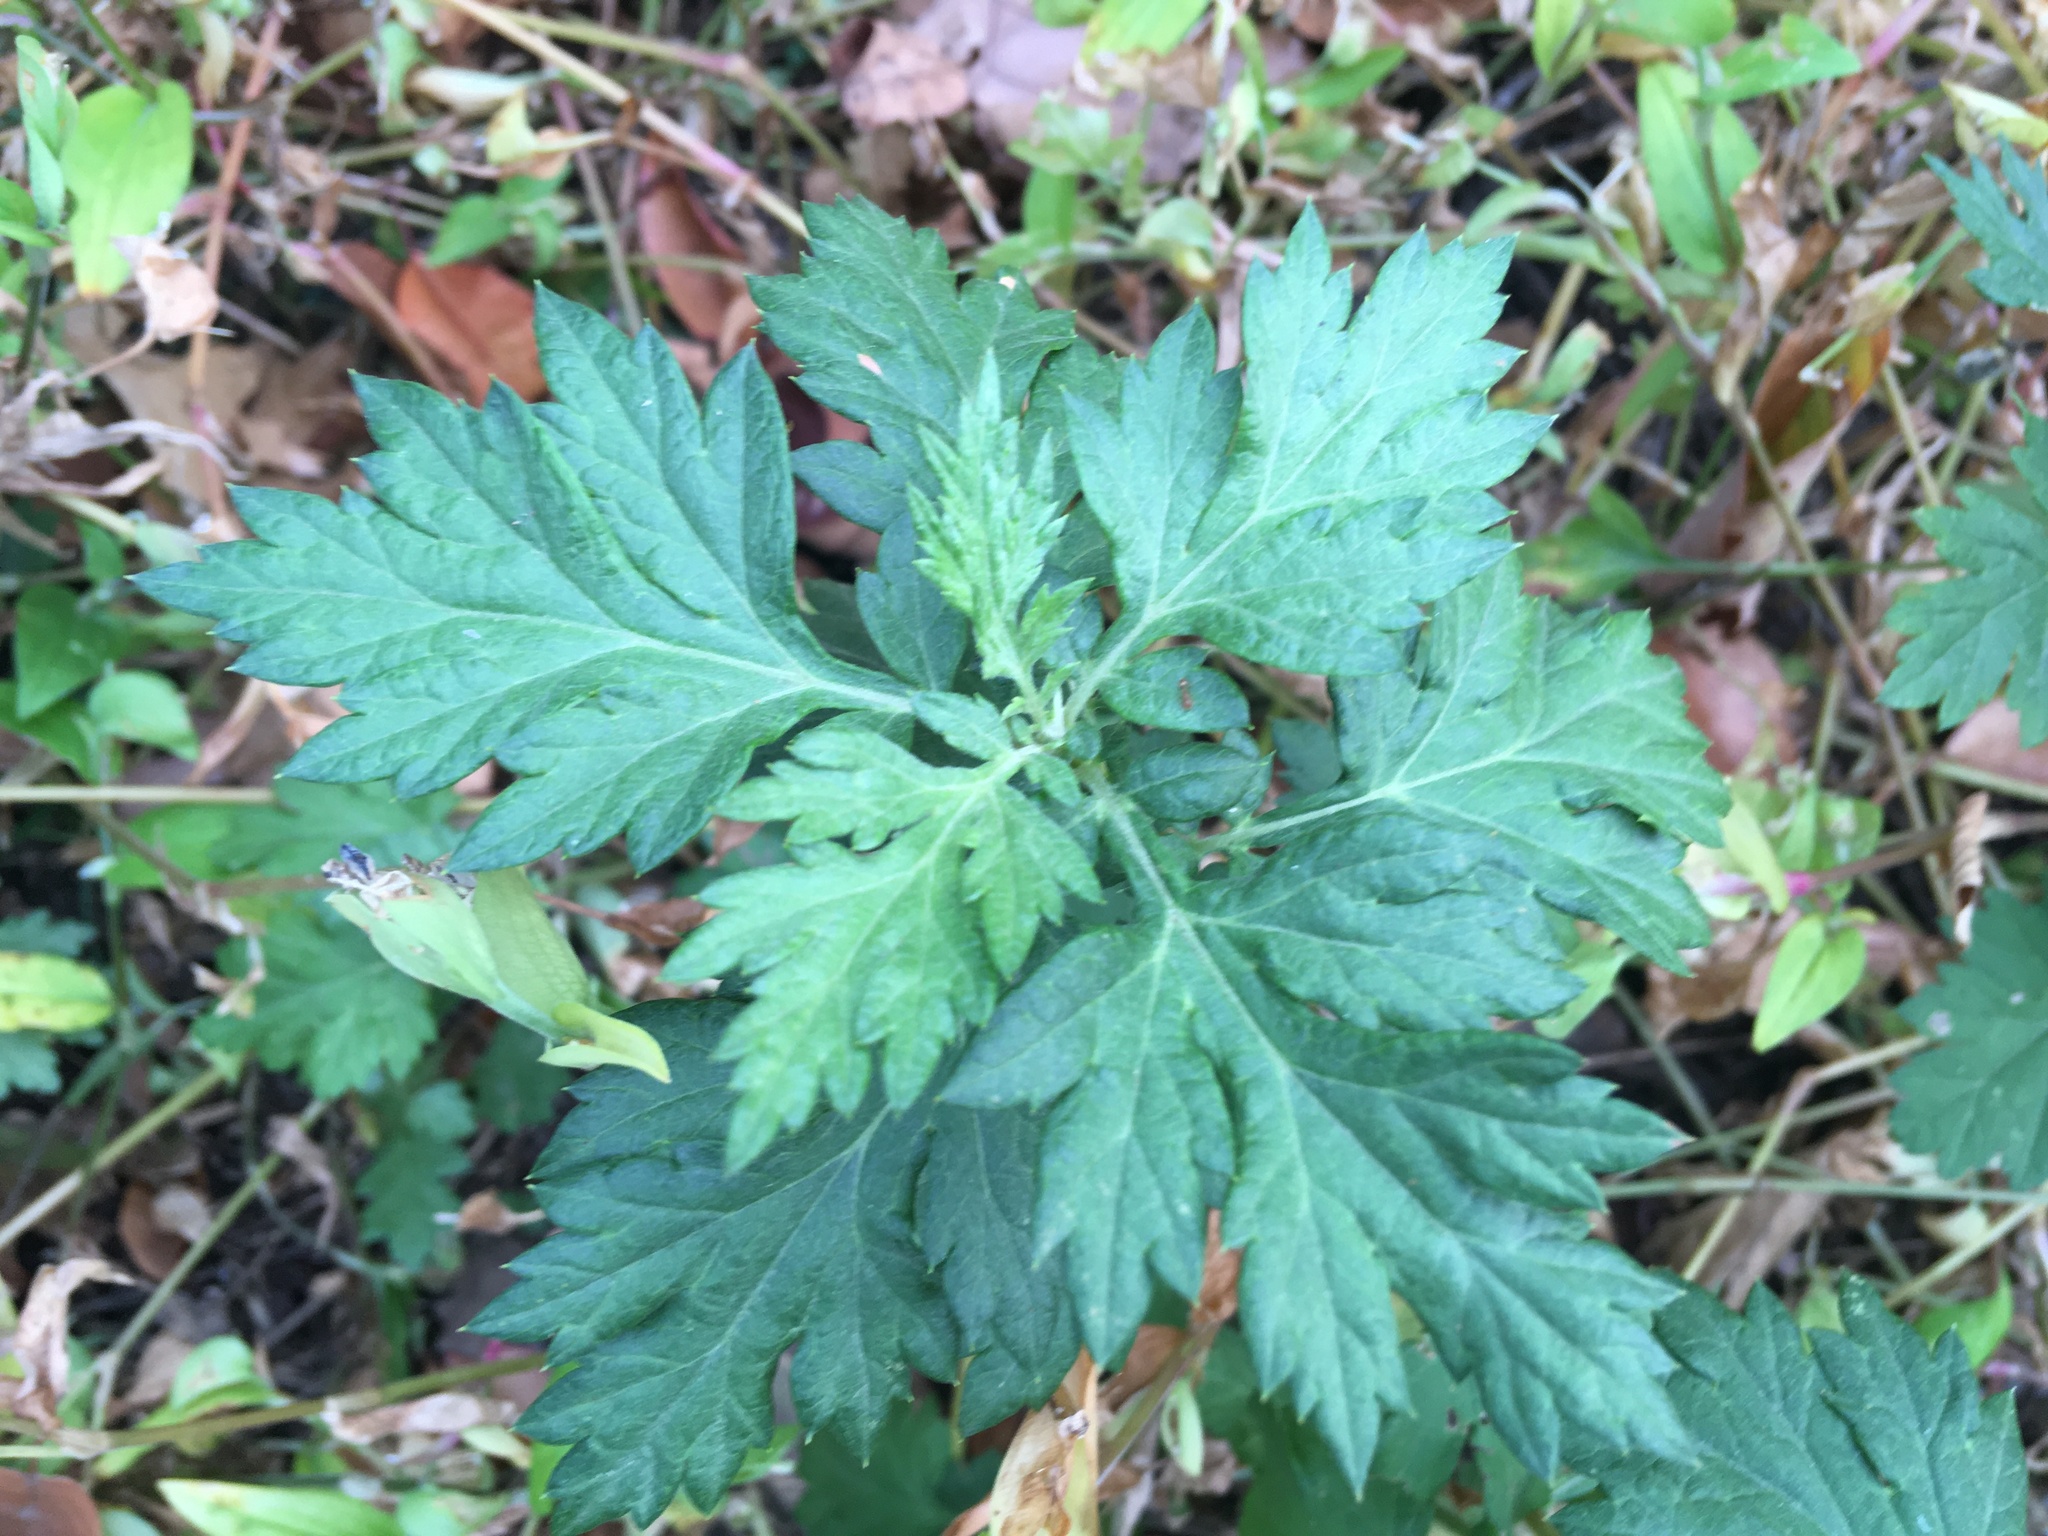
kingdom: Plantae
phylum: Tracheophyta
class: Magnoliopsida
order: Asterales
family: Asteraceae
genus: Artemisia
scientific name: Artemisia vulgaris
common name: Mugwort
